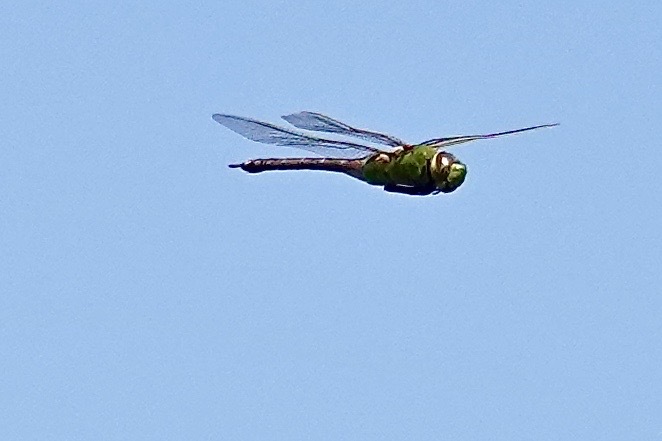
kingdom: Animalia
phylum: Arthropoda
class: Insecta
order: Odonata
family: Aeshnidae
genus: Anax
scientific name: Anax junius
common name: Common green darner
